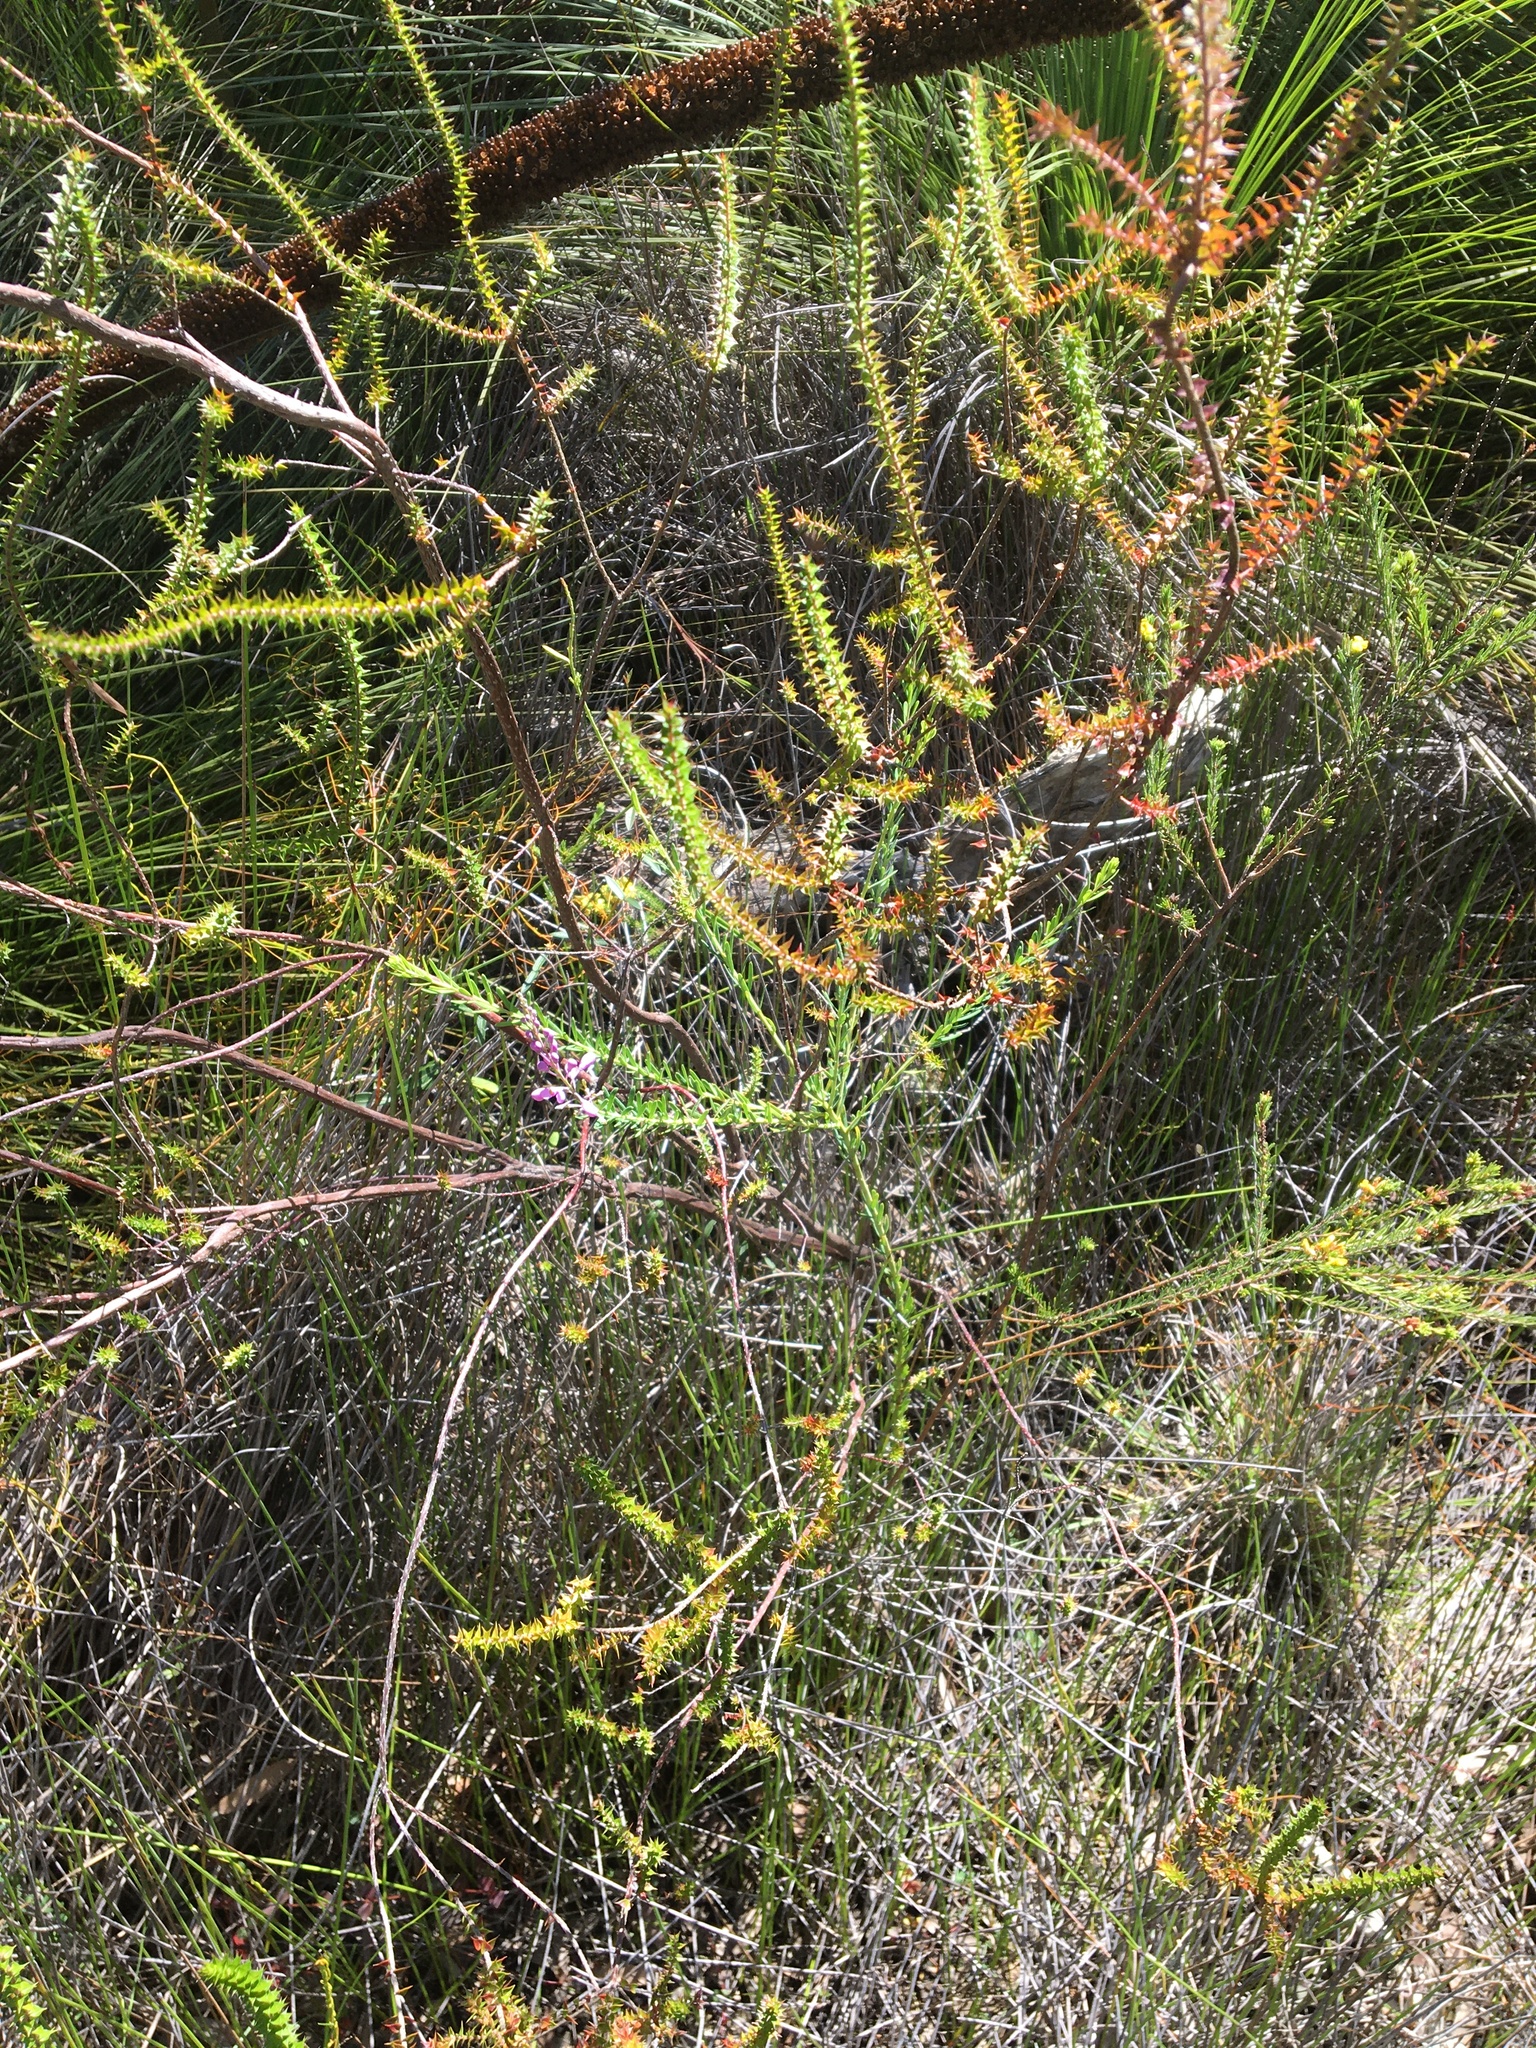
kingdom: Plantae
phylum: Tracheophyta
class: Magnoliopsida
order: Fabales
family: Polygalaceae
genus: Comesperma
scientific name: Comesperma ericinum
